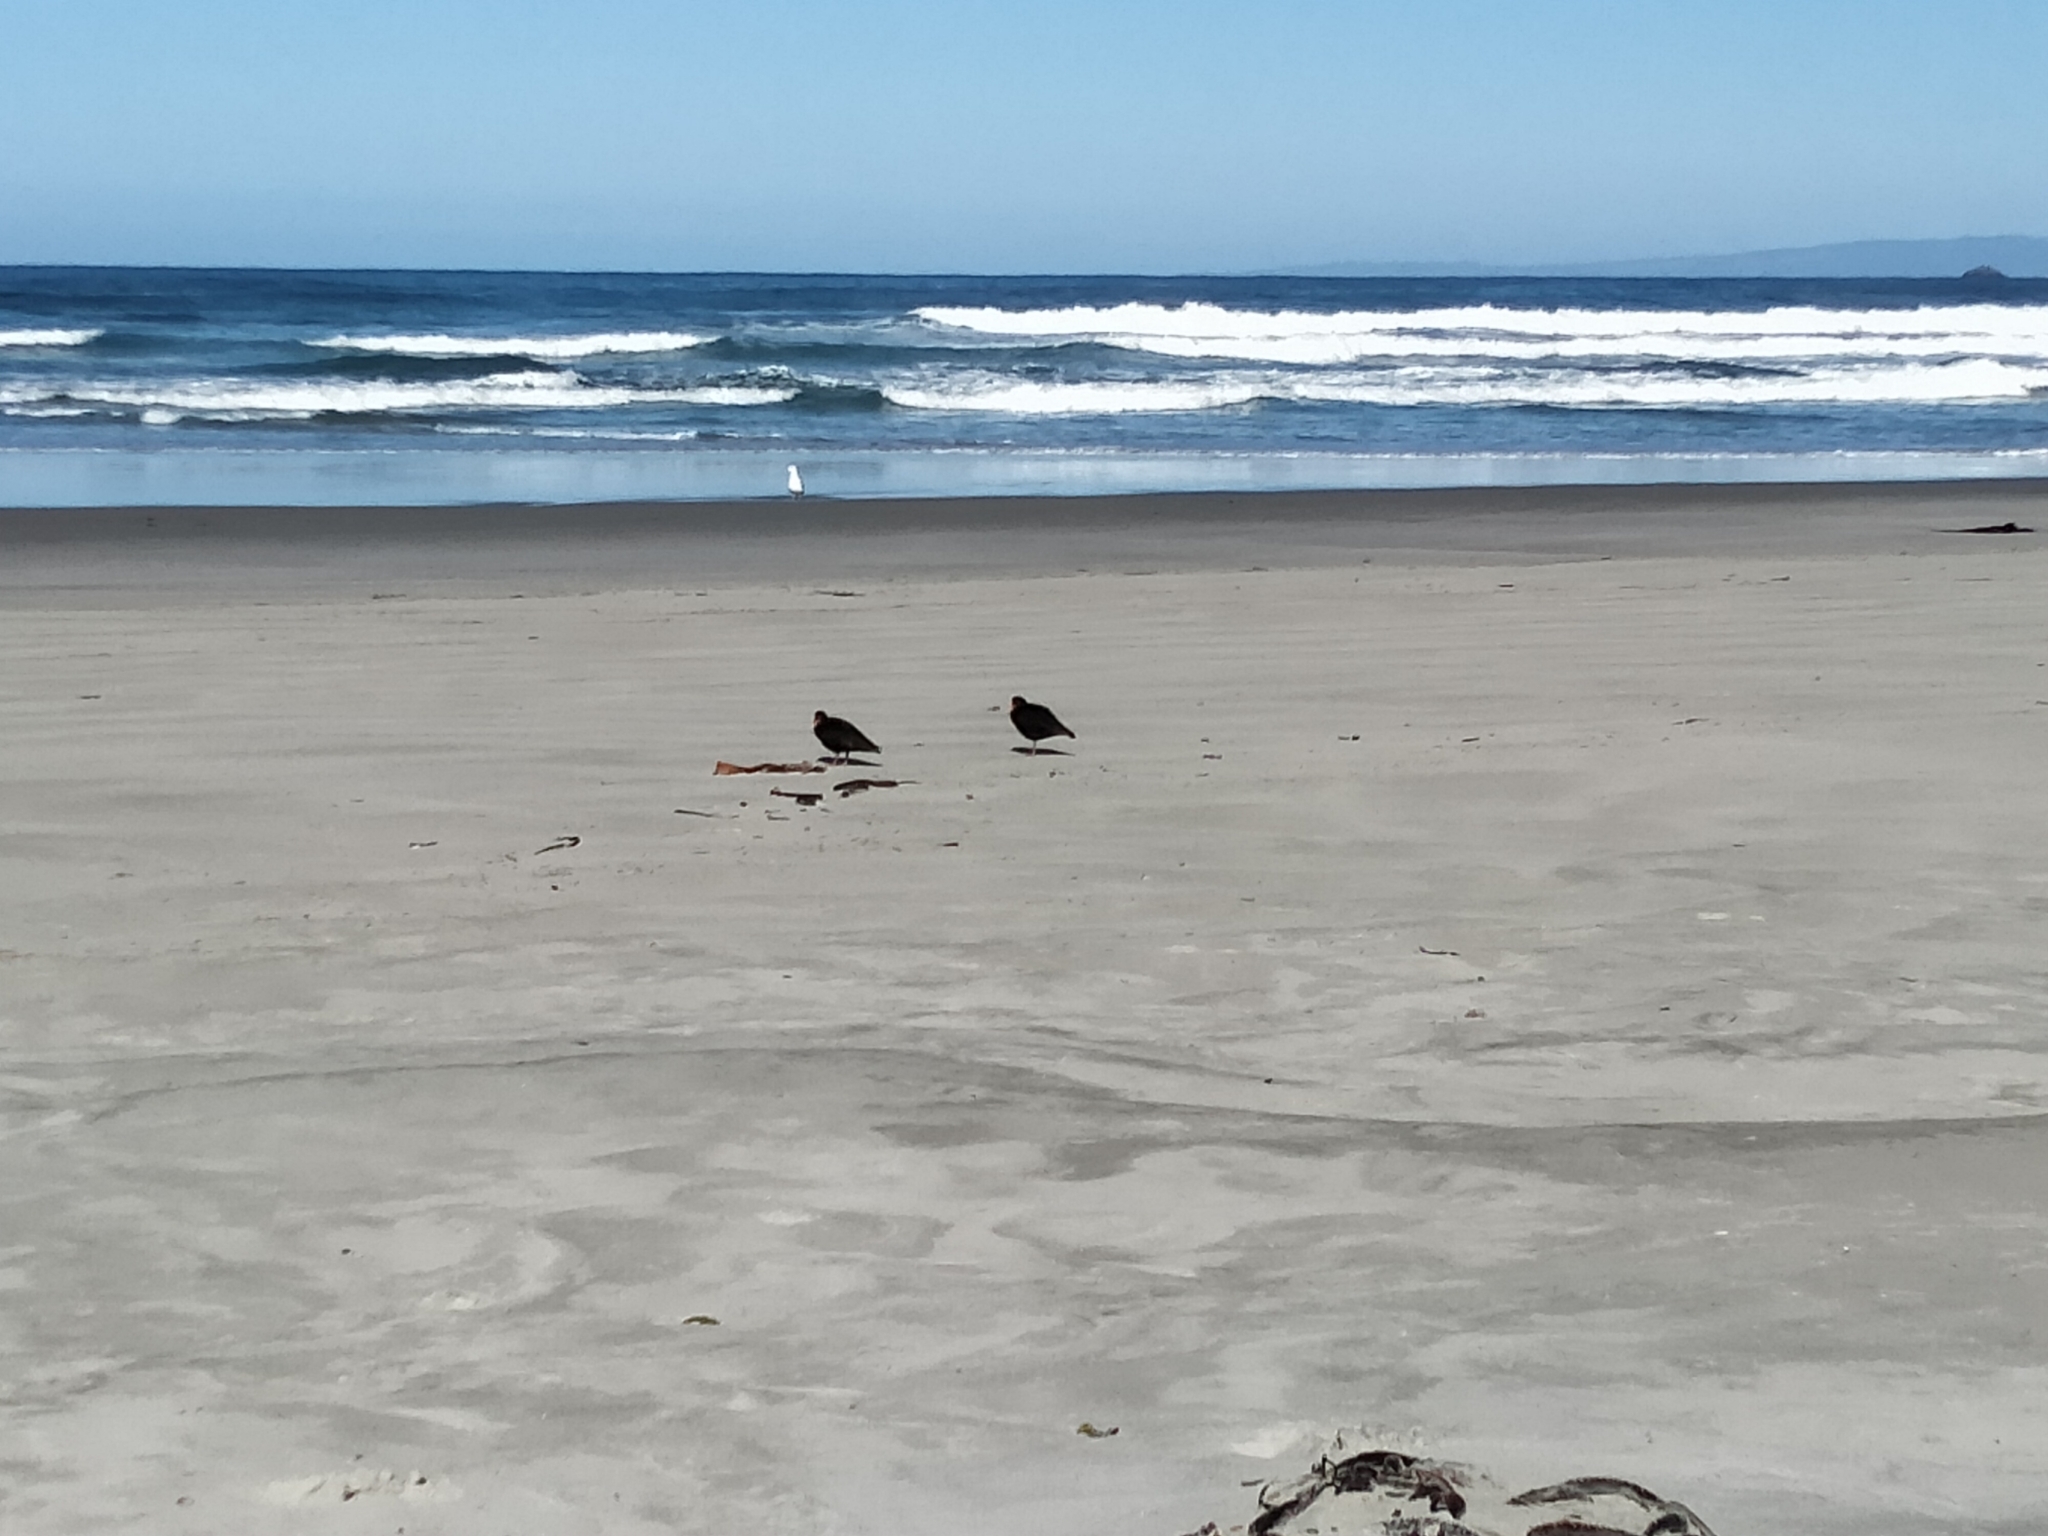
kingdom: Animalia
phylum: Chordata
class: Aves
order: Charadriiformes
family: Haematopodidae
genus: Haematopus
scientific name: Haematopus unicolor
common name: Variable oystercatcher
